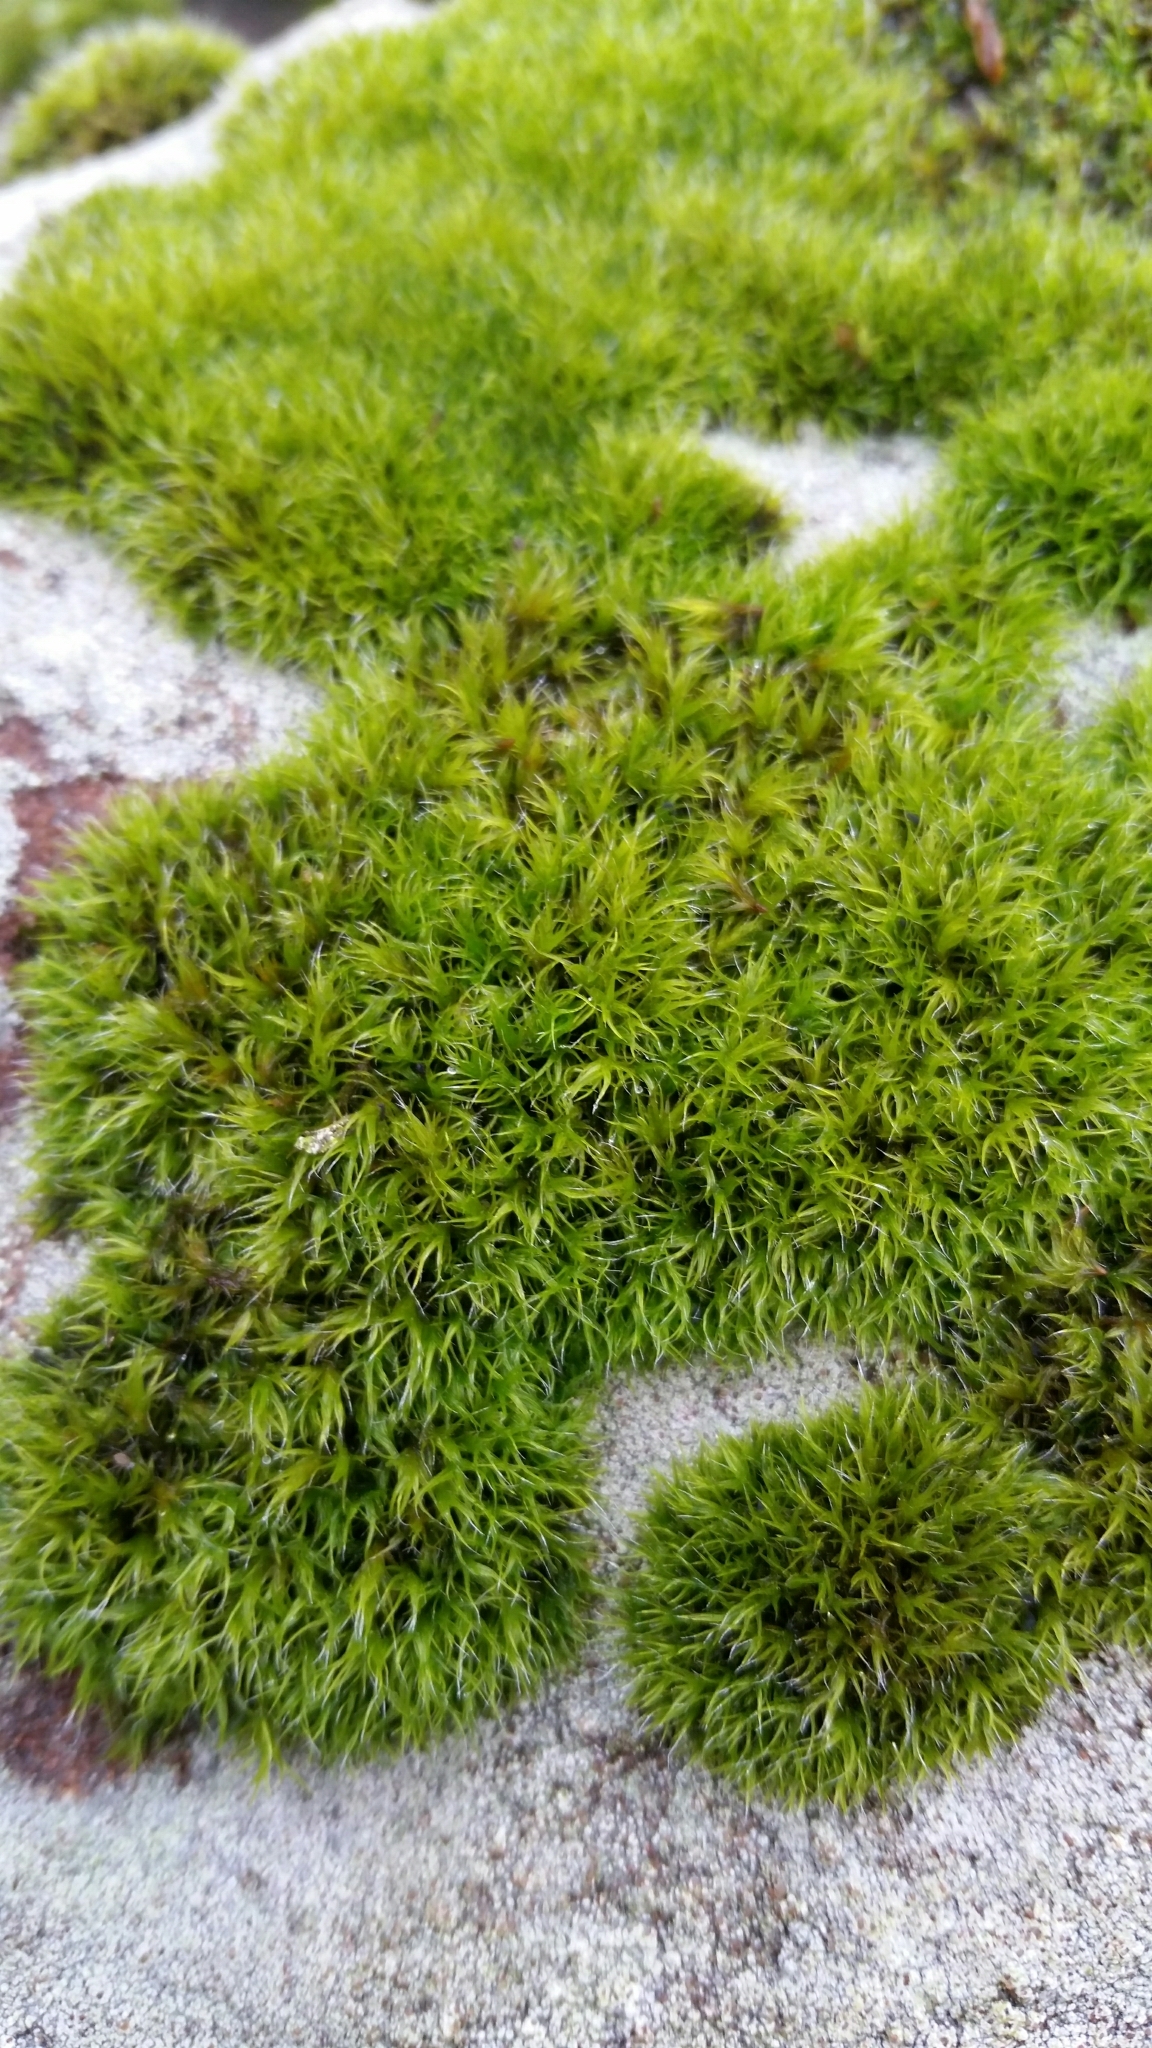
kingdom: Plantae
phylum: Bryophyta
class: Bryopsida
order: Grimmiales
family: Grimmiaceae
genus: Grimmia
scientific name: Grimmia trichophylla
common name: Hair-pointed grimmia
